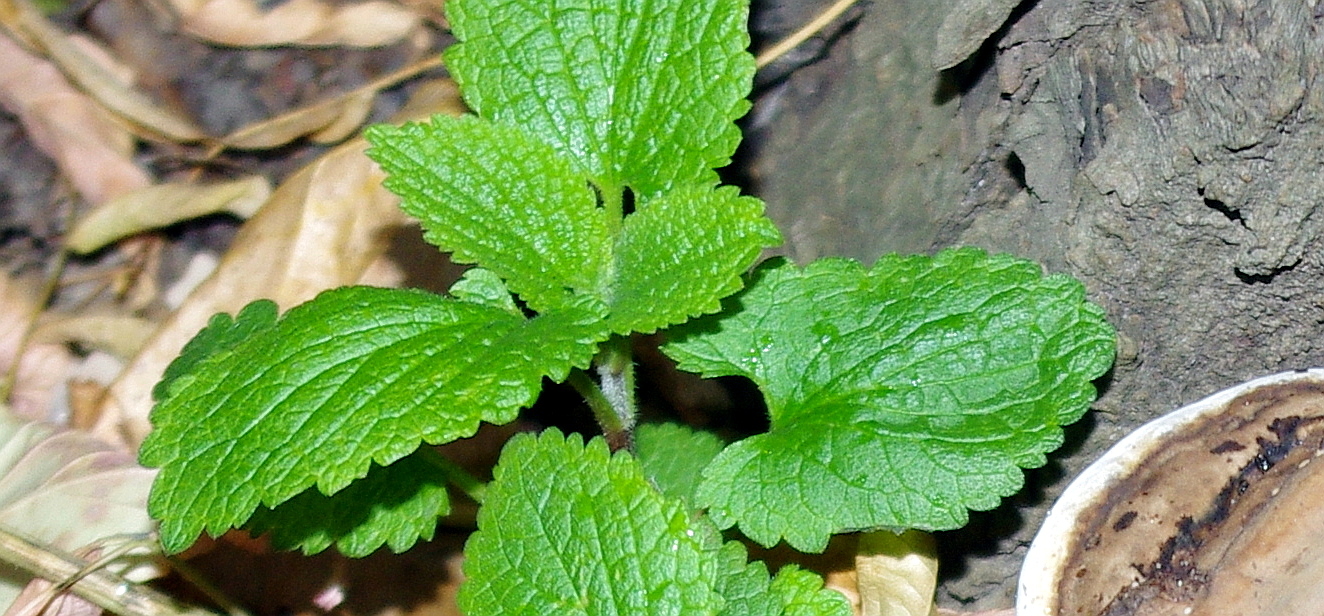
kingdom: Plantae
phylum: Tracheophyta
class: Magnoliopsida
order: Lamiales
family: Lamiaceae
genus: Lamium
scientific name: Lamium album
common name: White dead-nettle
